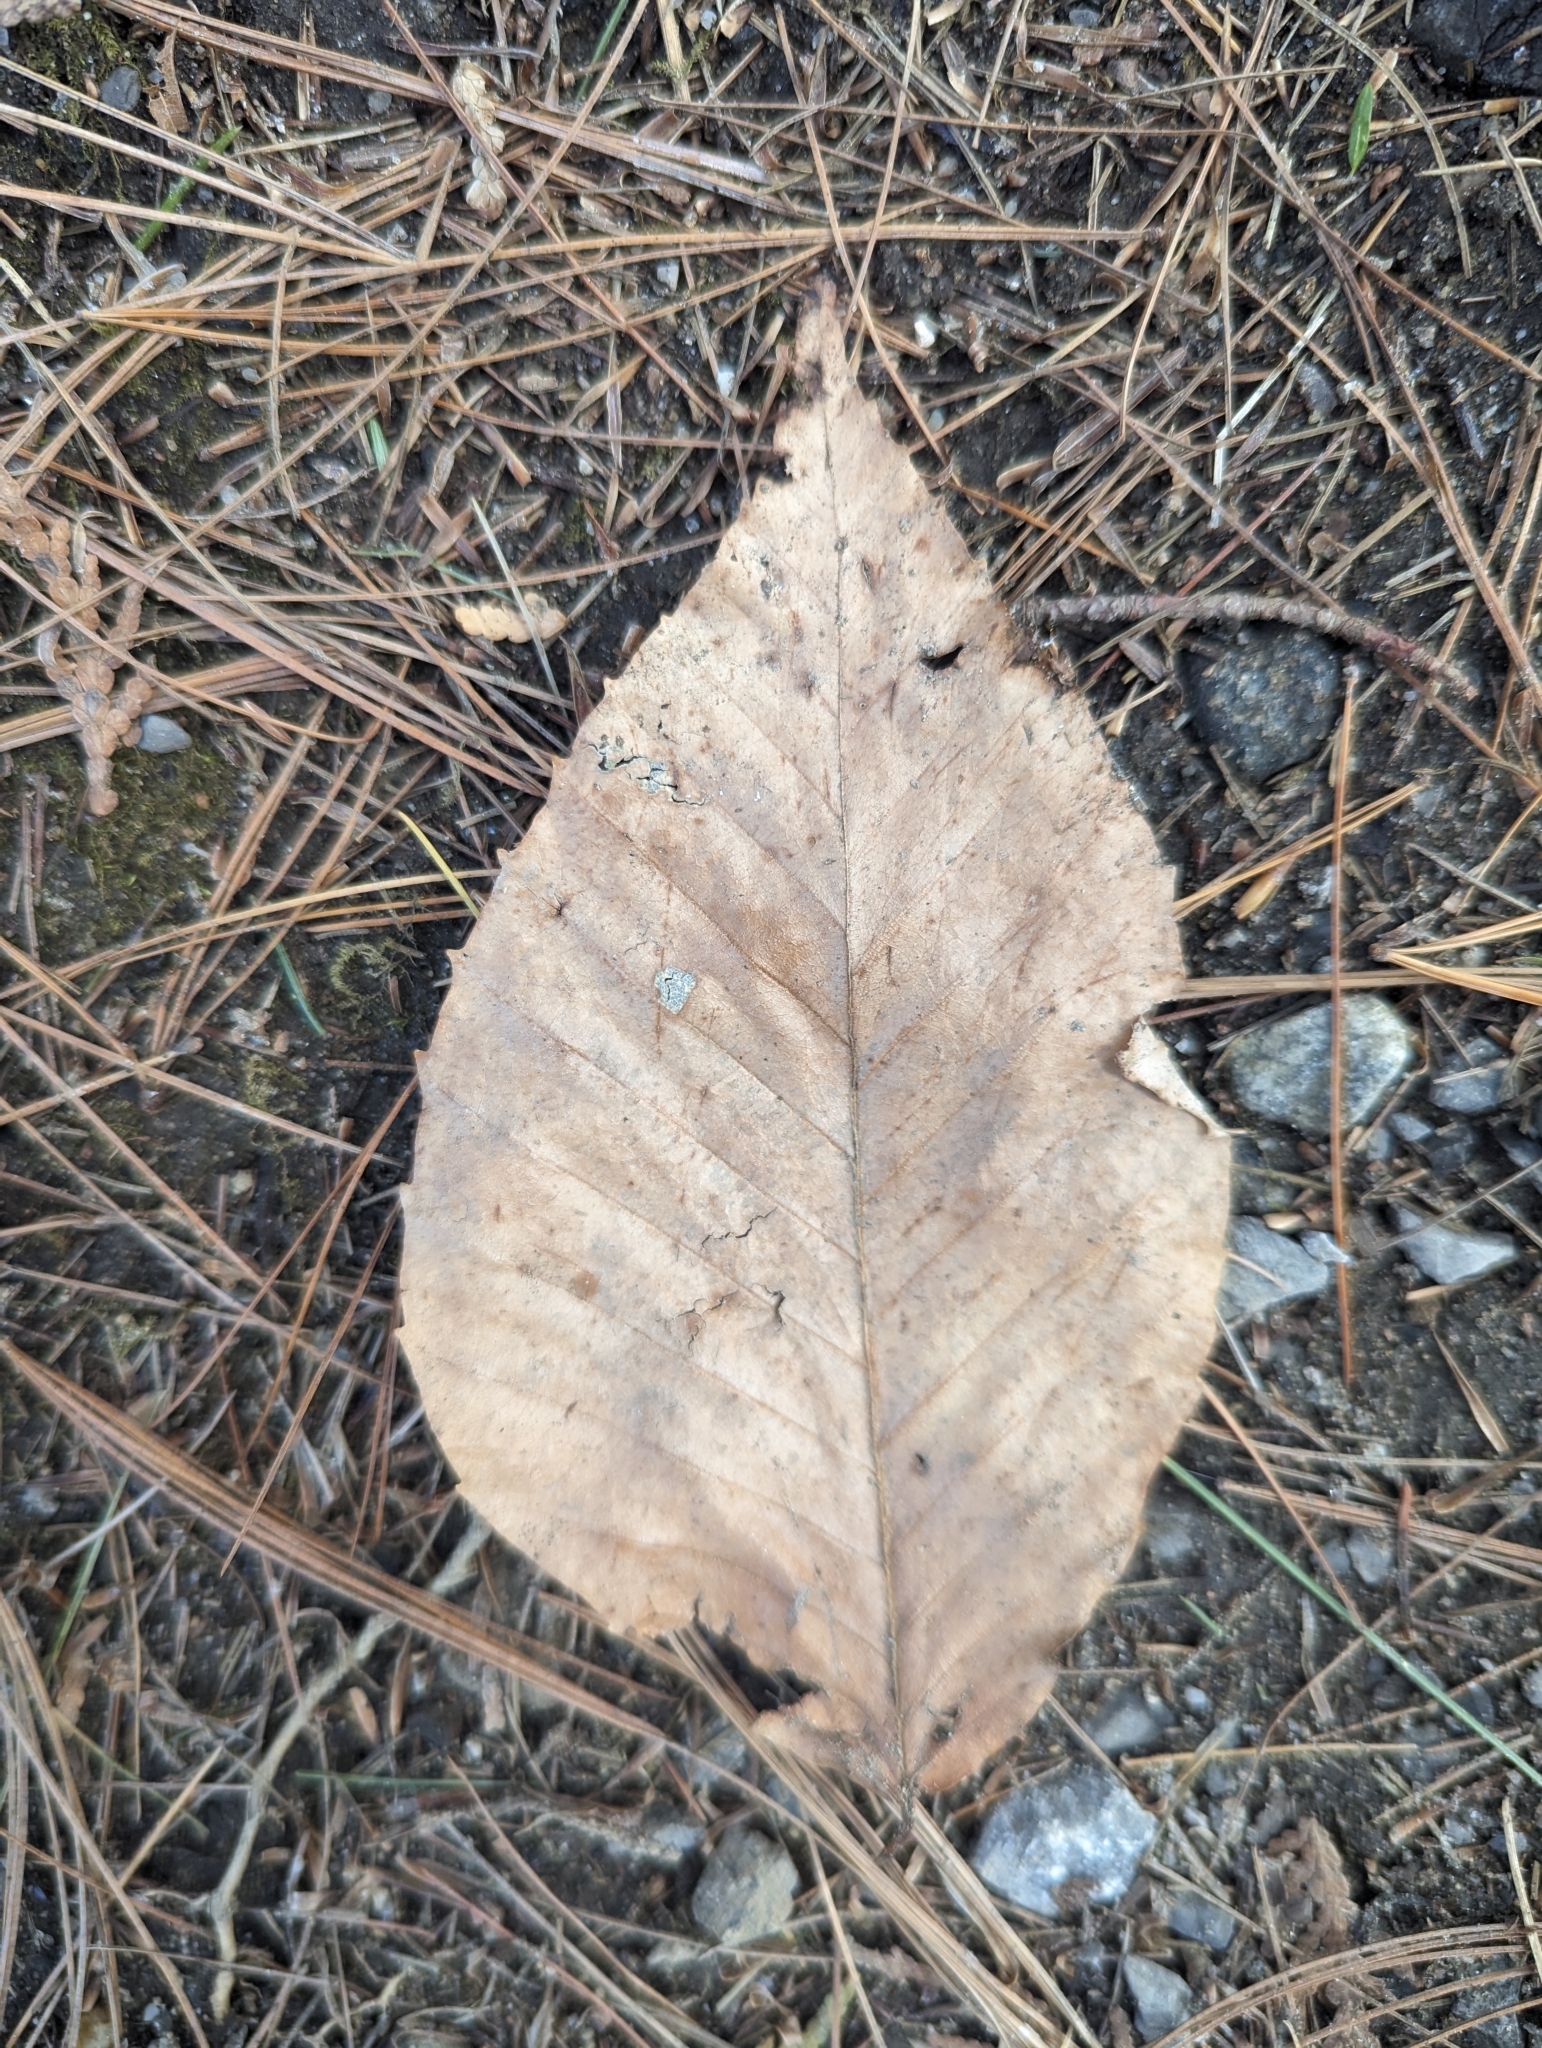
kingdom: Plantae
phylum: Tracheophyta
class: Magnoliopsida
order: Fagales
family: Fagaceae
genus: Fagus
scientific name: Fagus grandifolia
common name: American beech
